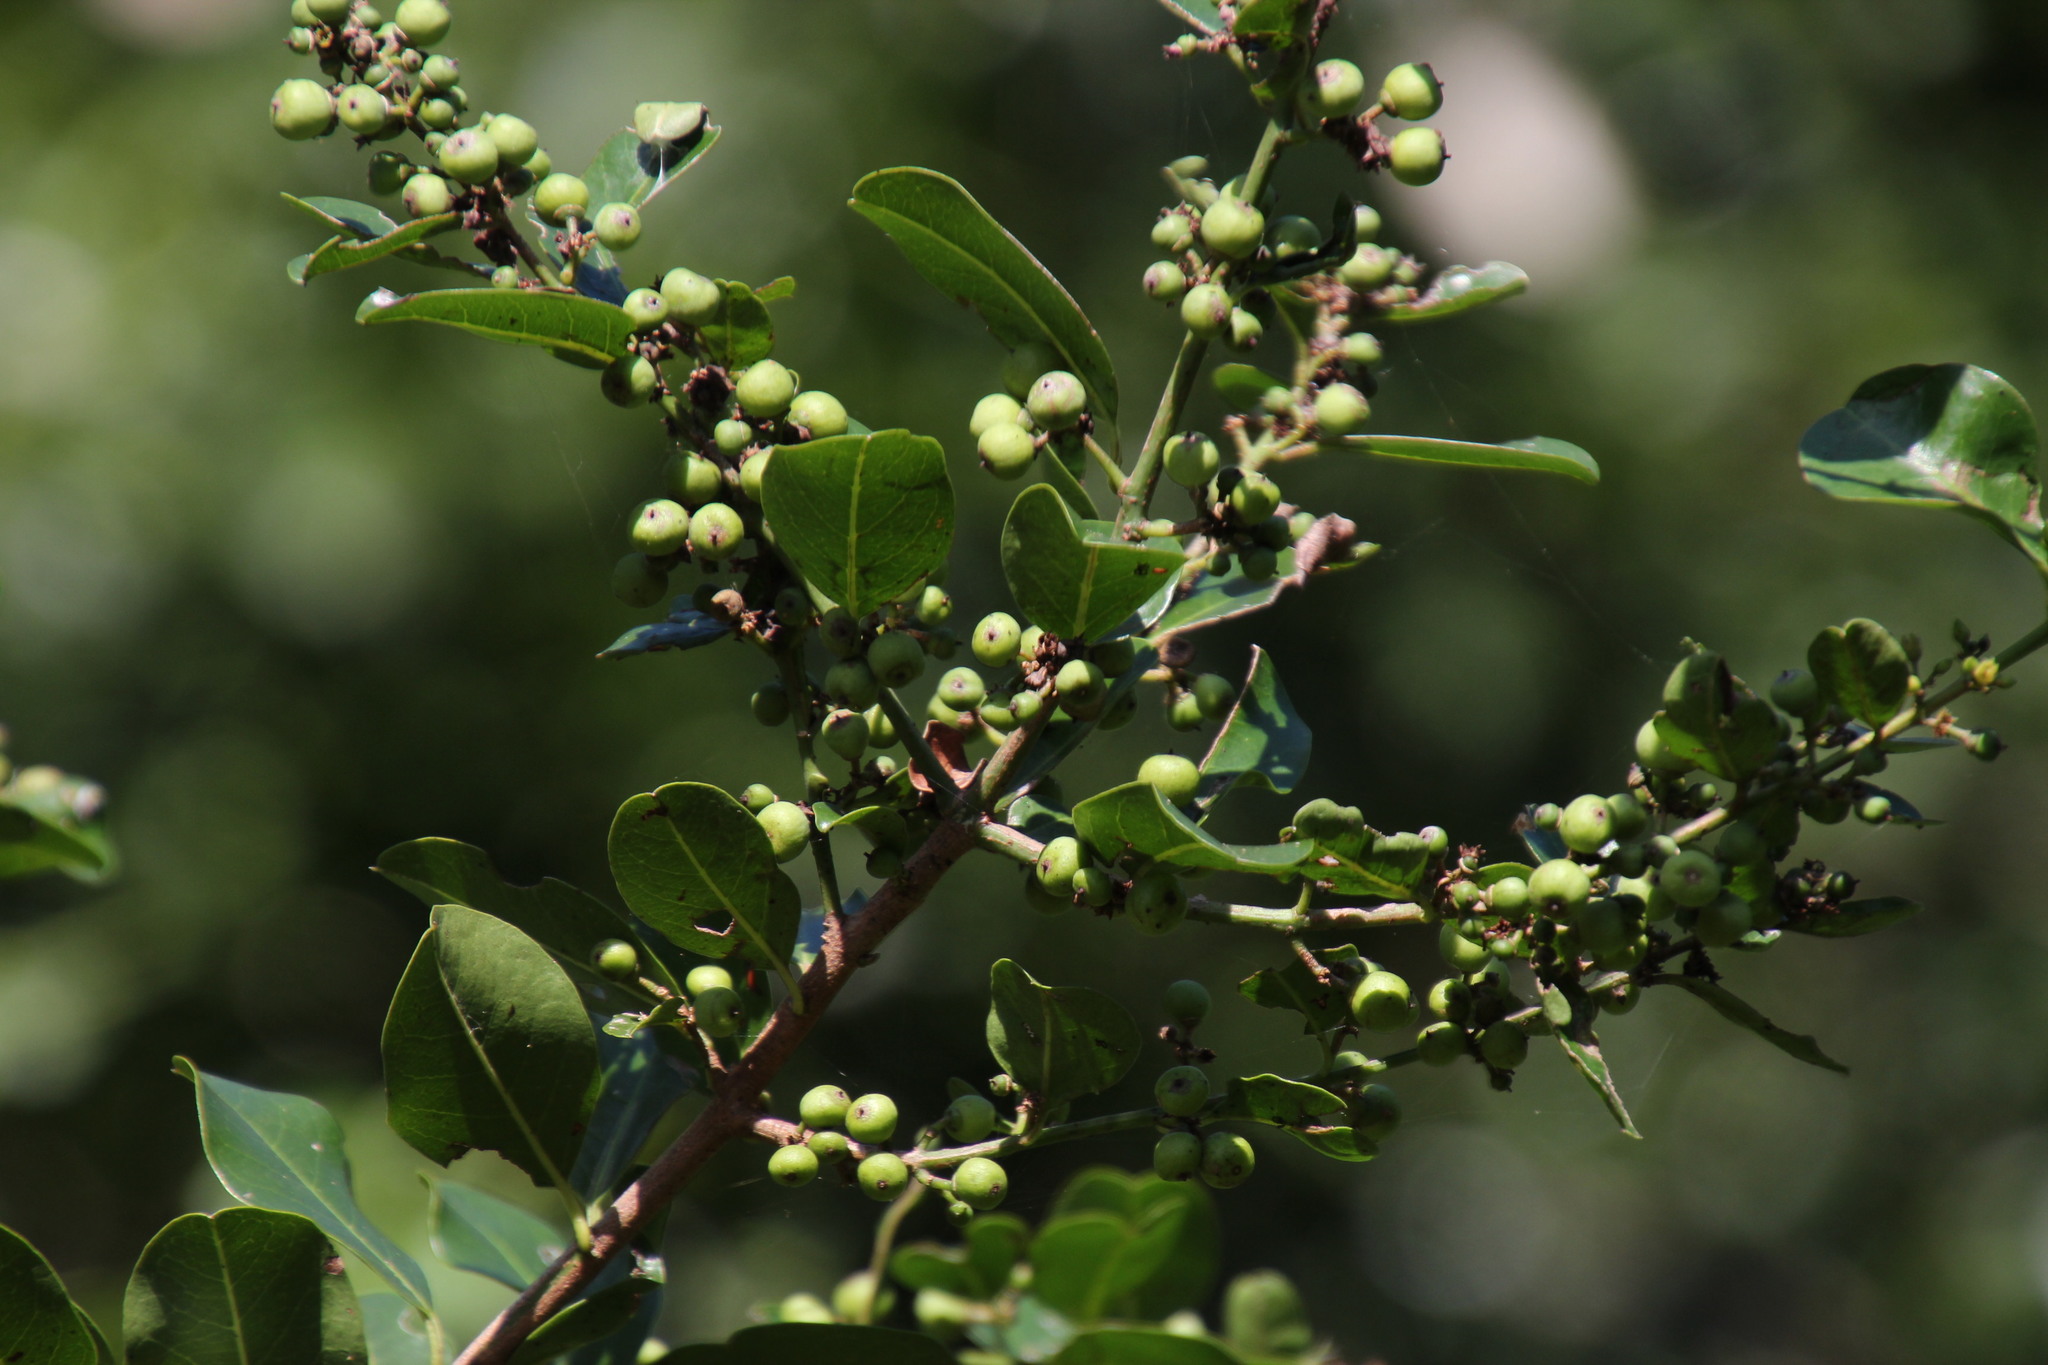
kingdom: Plantae
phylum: Tracheophyta
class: Magnoliopsida
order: Rosales
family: Rhamnaceae
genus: Scutia
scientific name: Scutia myrtina
